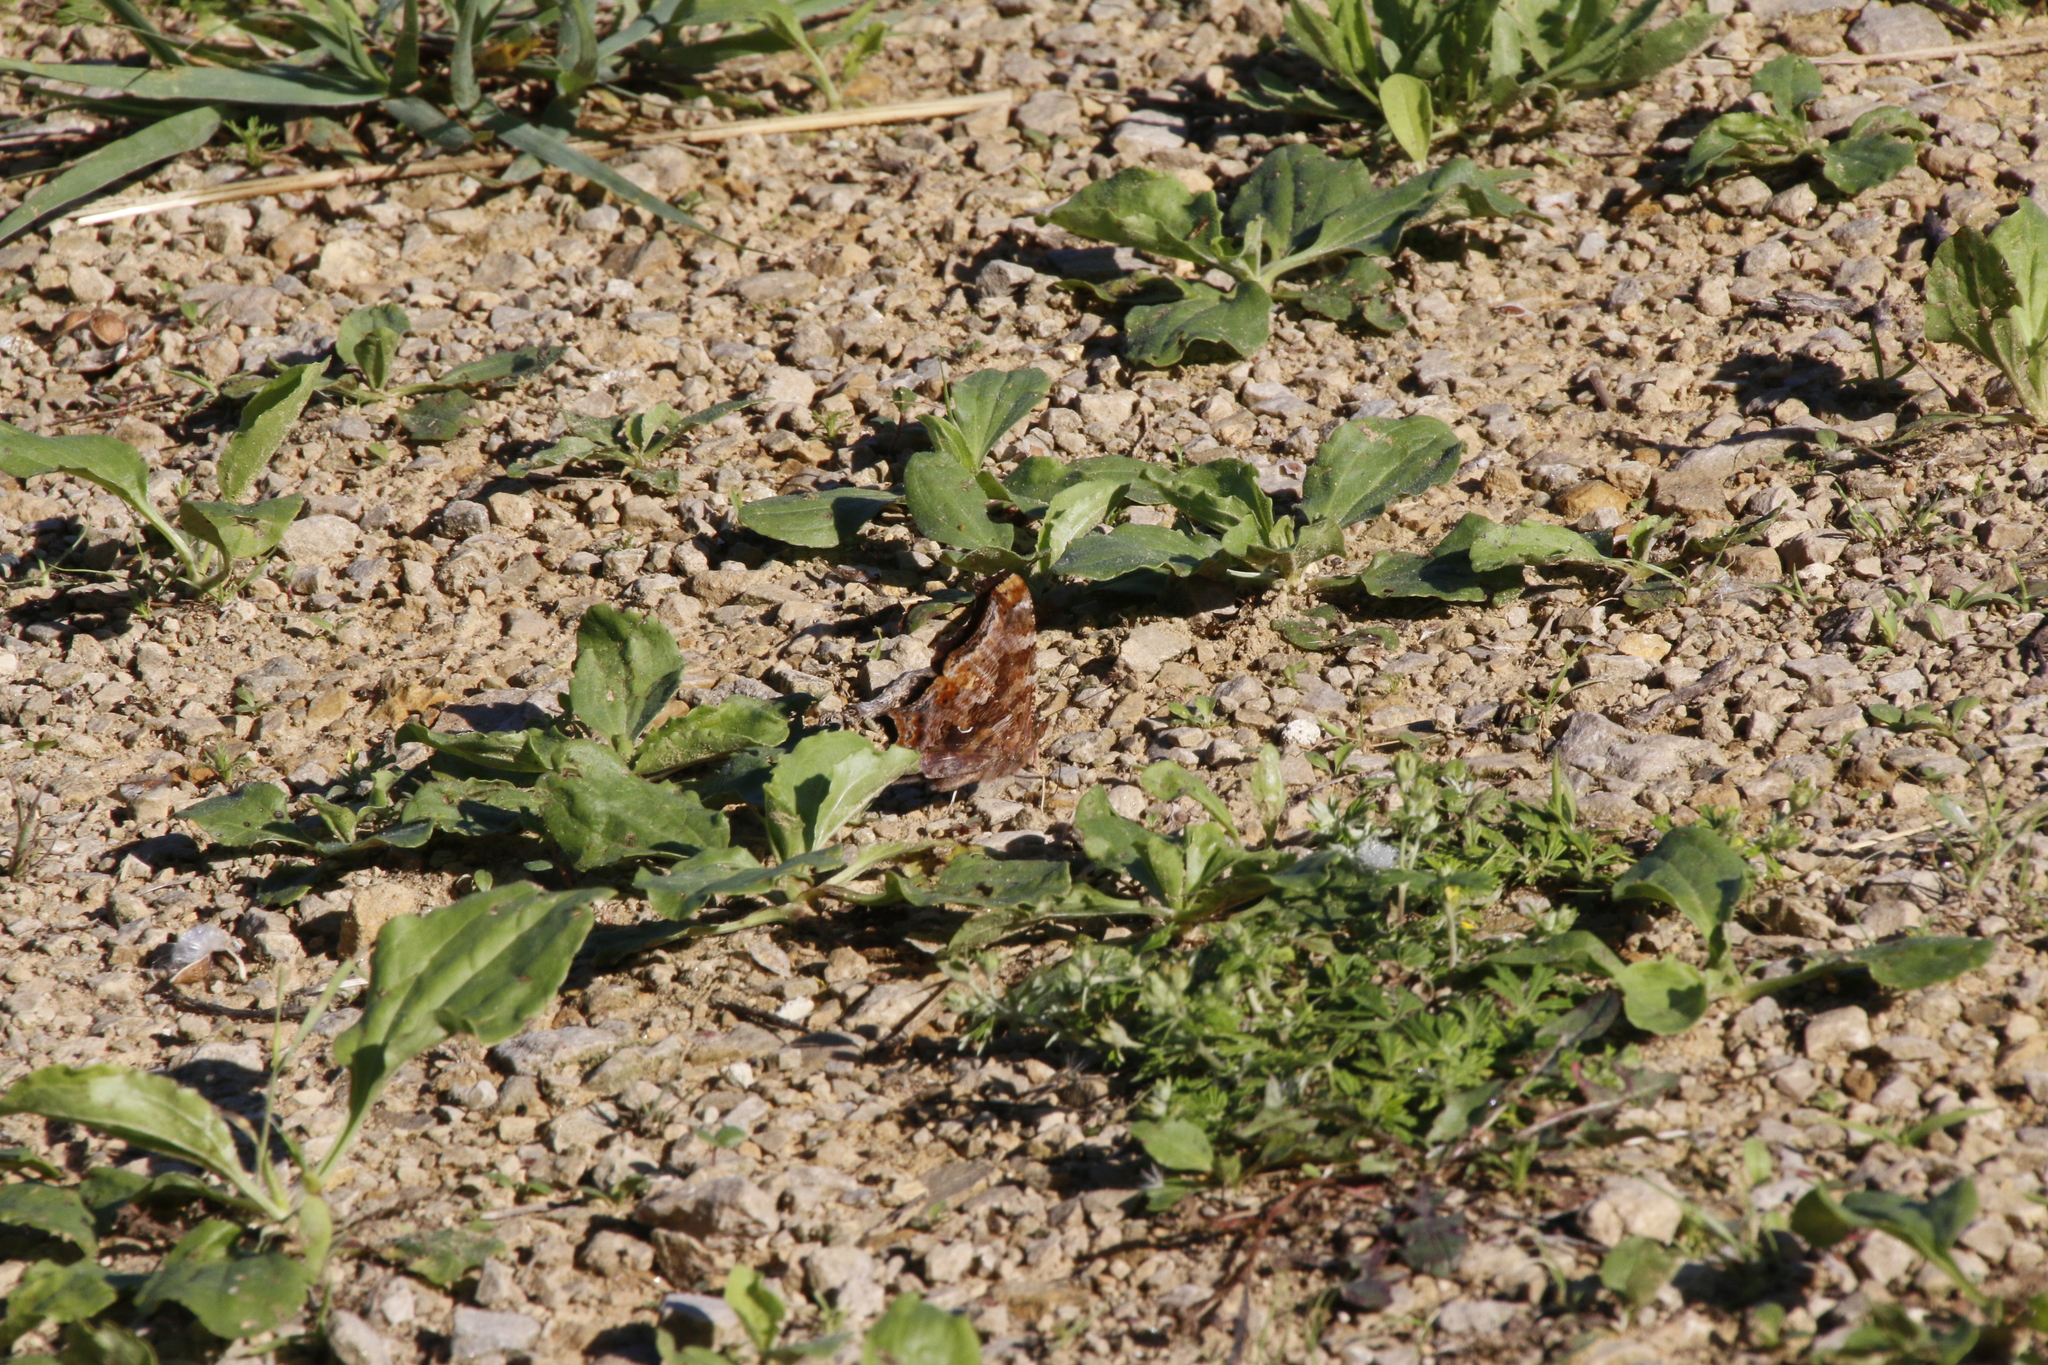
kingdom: Animalia
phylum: Arthropoda
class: Insecta
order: Lepidoptera
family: Nymphalidae
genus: Polygonia
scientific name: Polygonia comma
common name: Eastern comma
